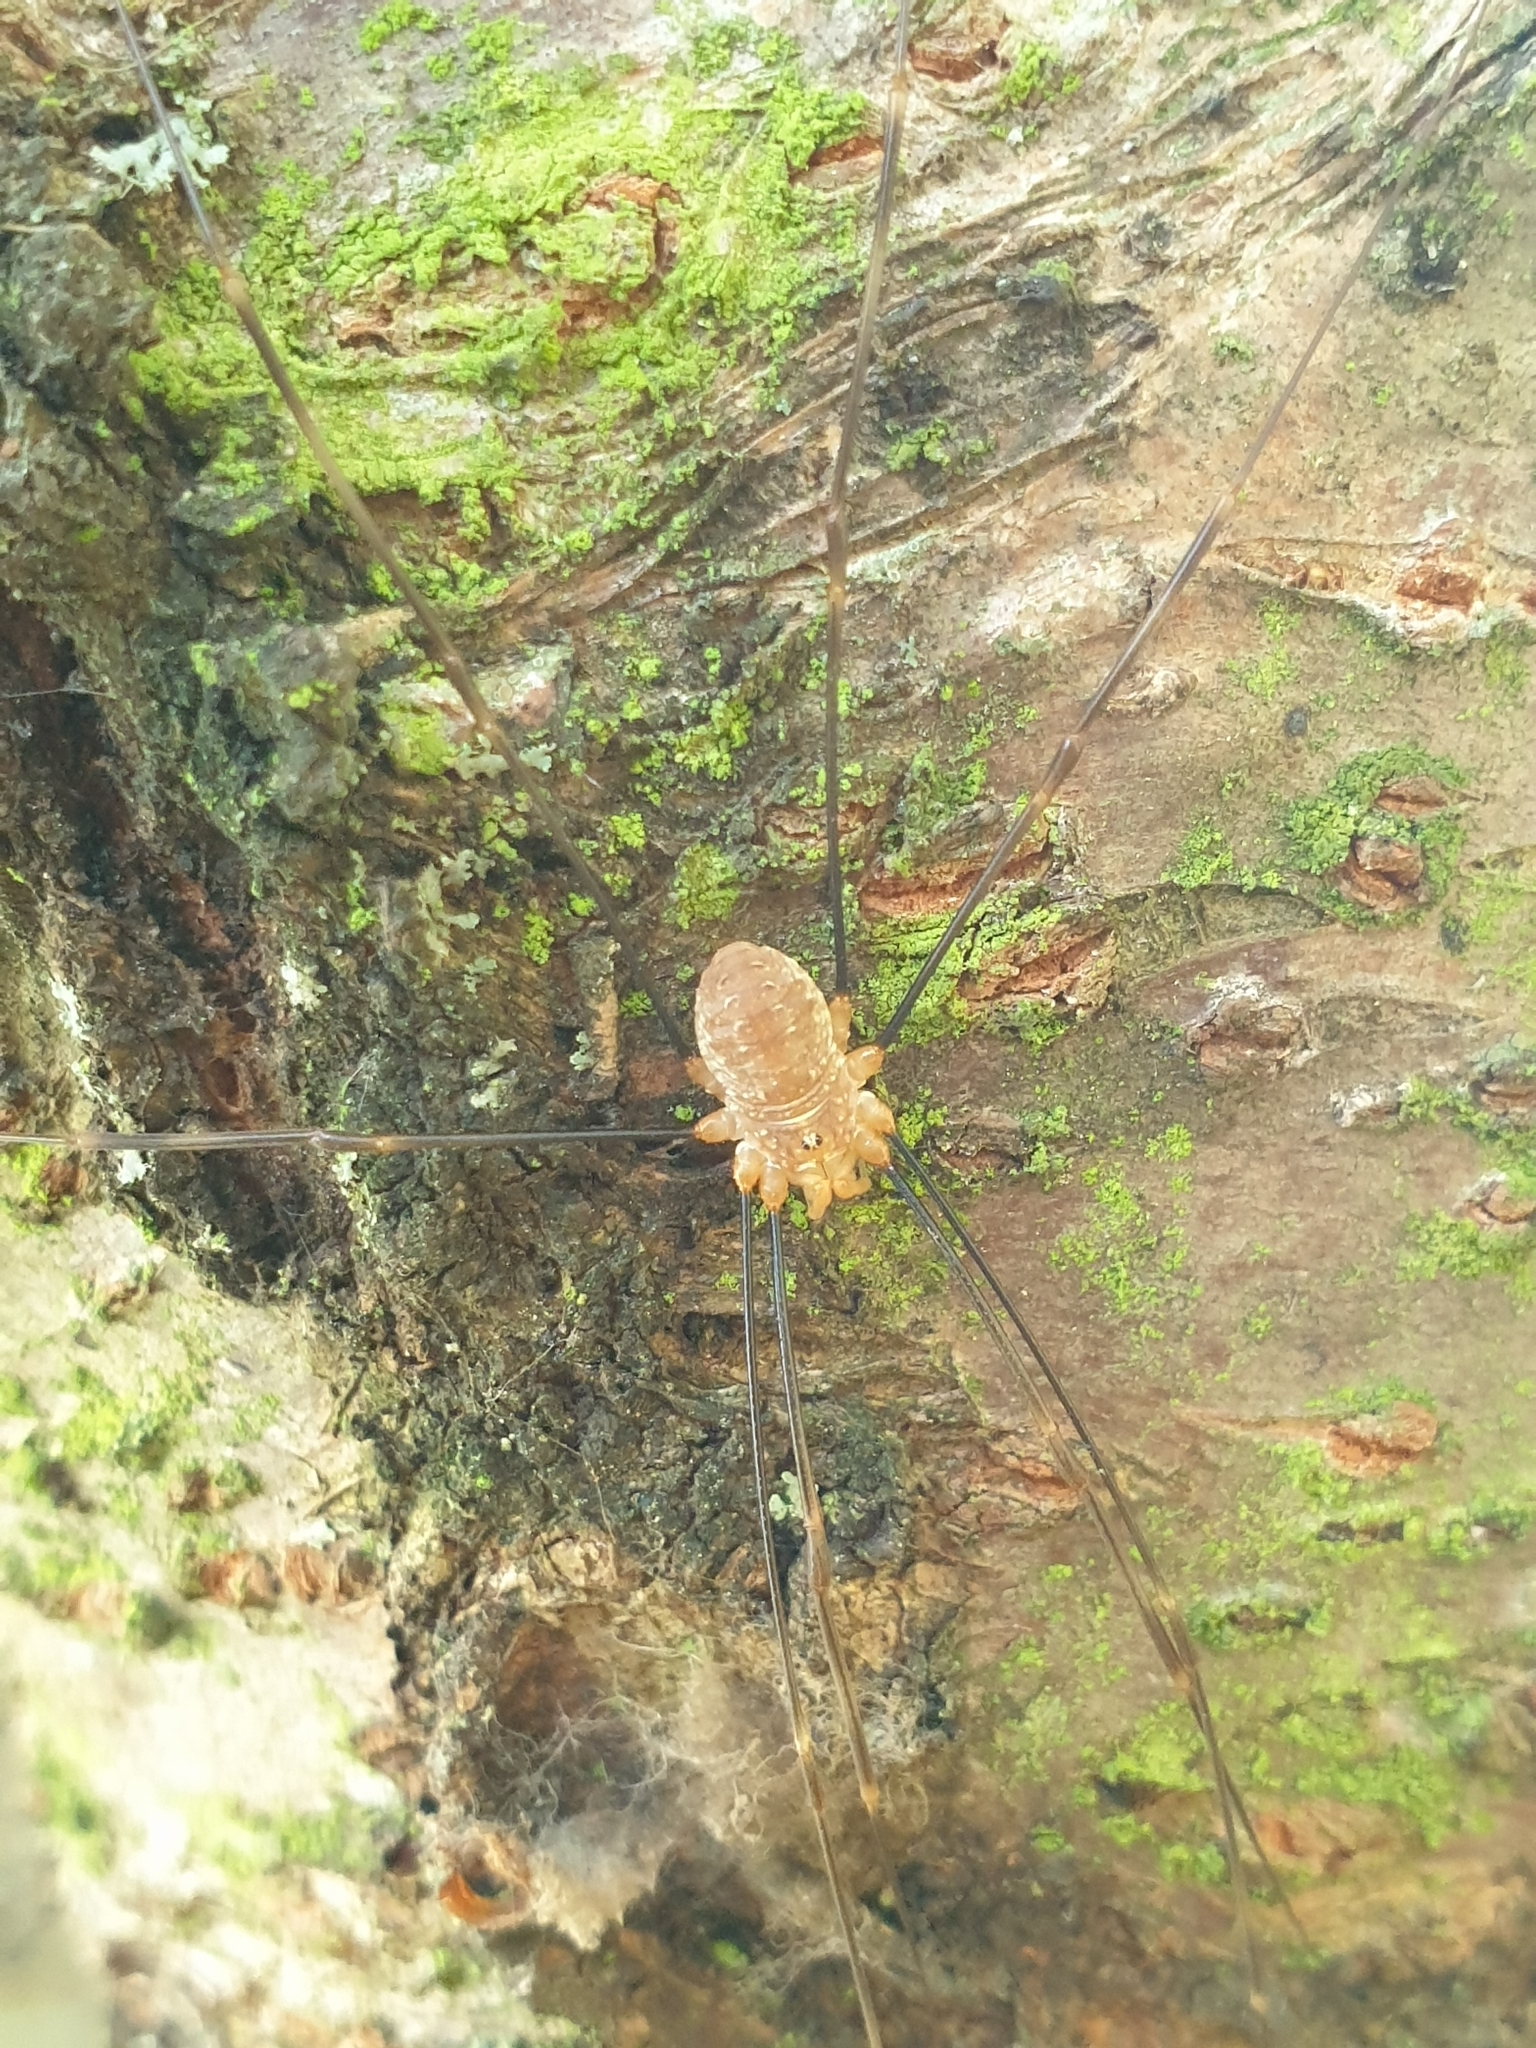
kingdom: Animalia
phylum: Arthropoda
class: Arachnida
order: Opiliones
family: Phalangiidae
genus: Opilio
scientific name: Opilio canestrinii
